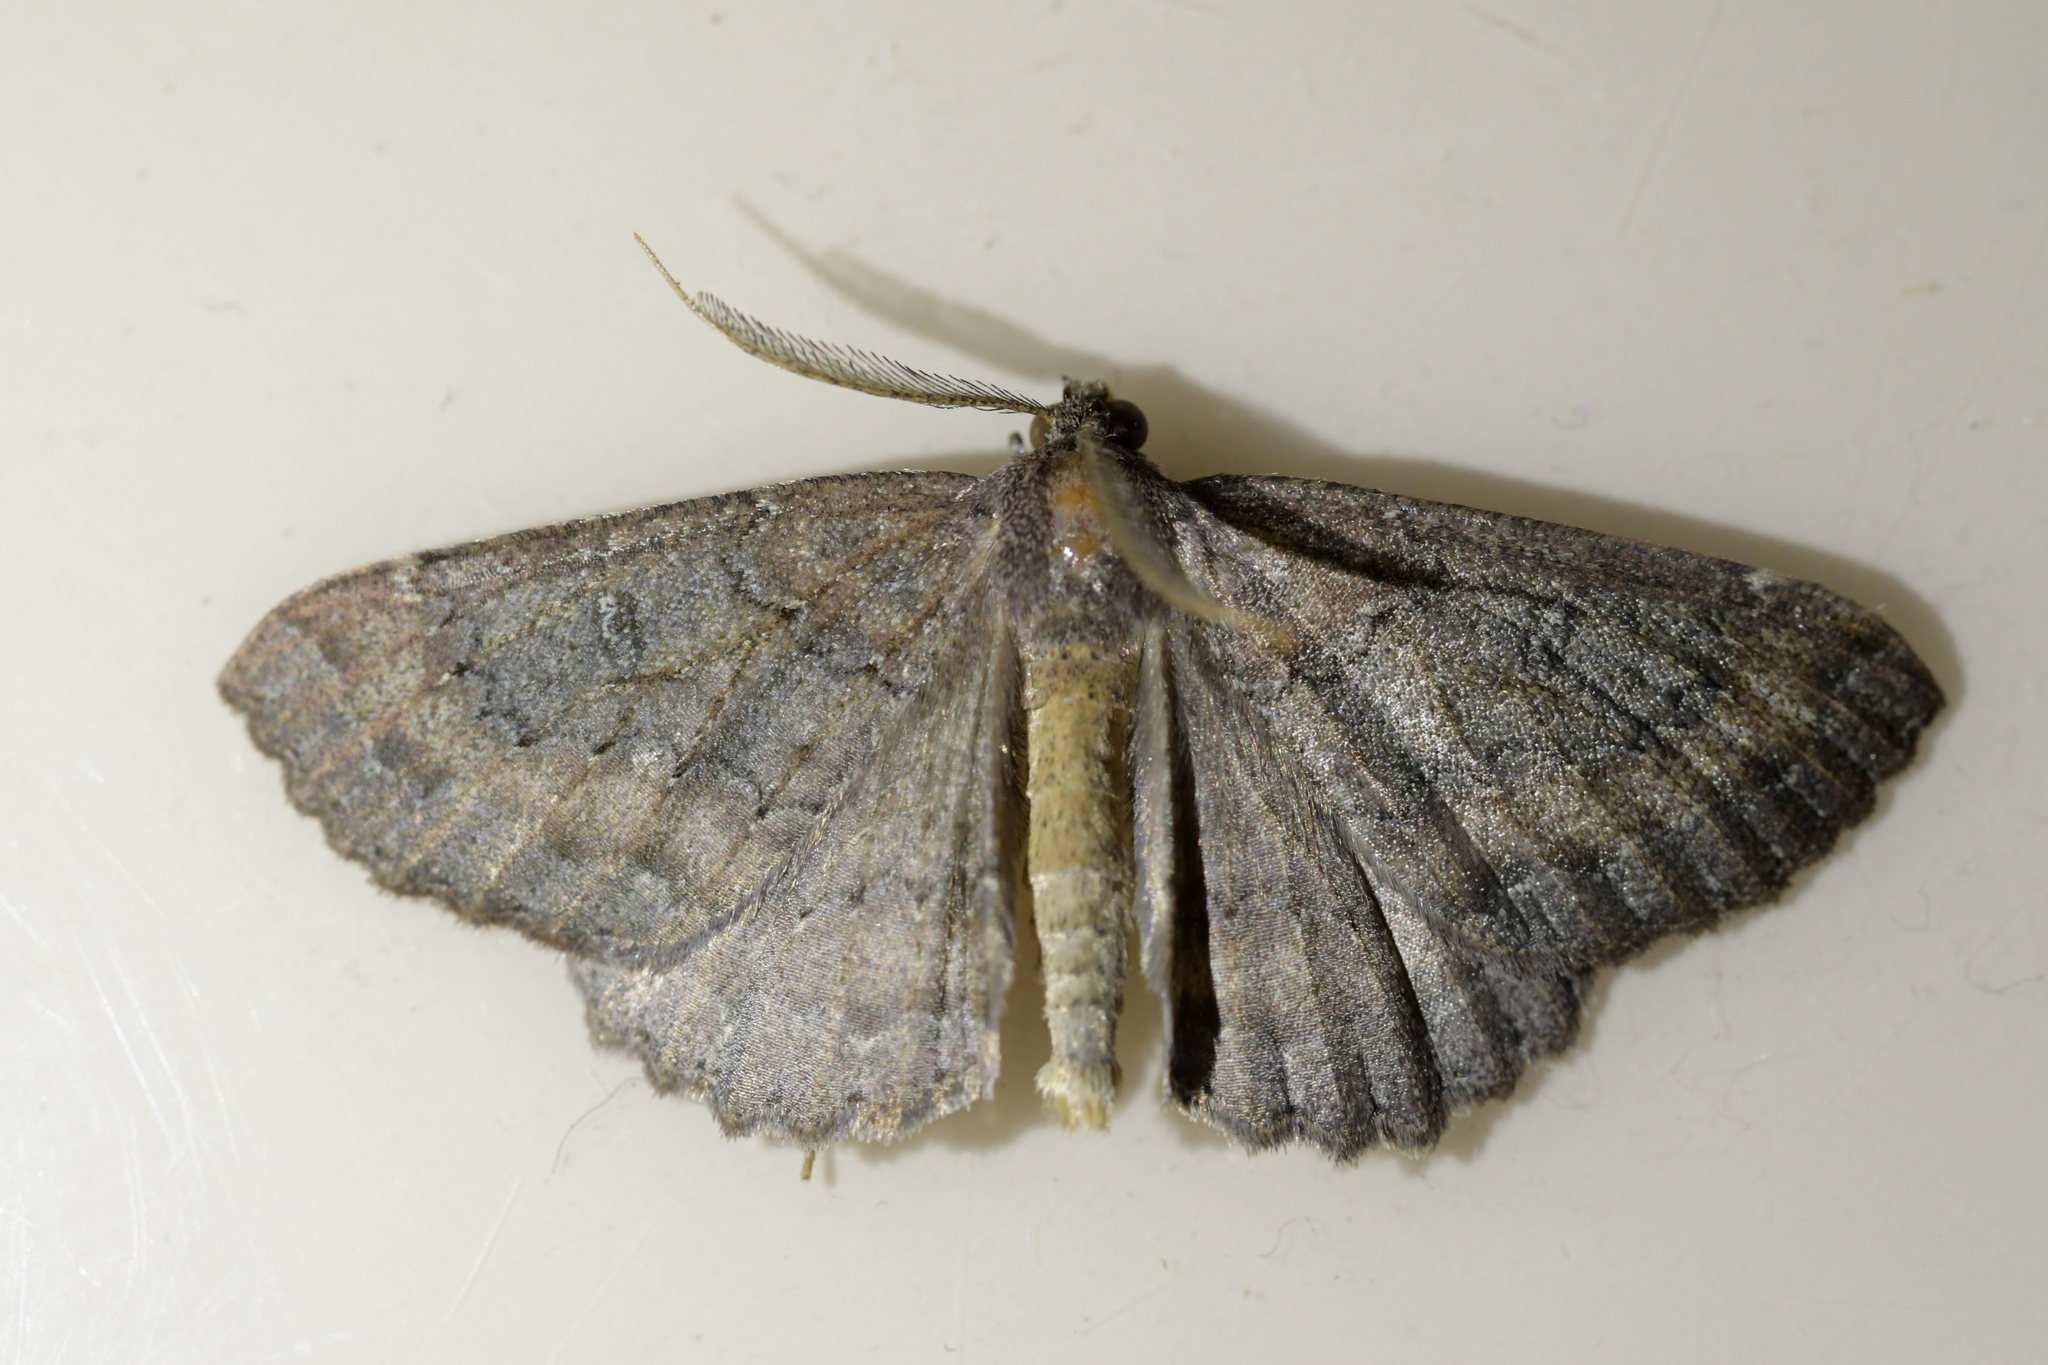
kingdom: Animalia
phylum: Arthropoda
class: Insecta
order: Lepidoptera
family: Geometridae
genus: Cleora
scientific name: Cleora scriptaria
